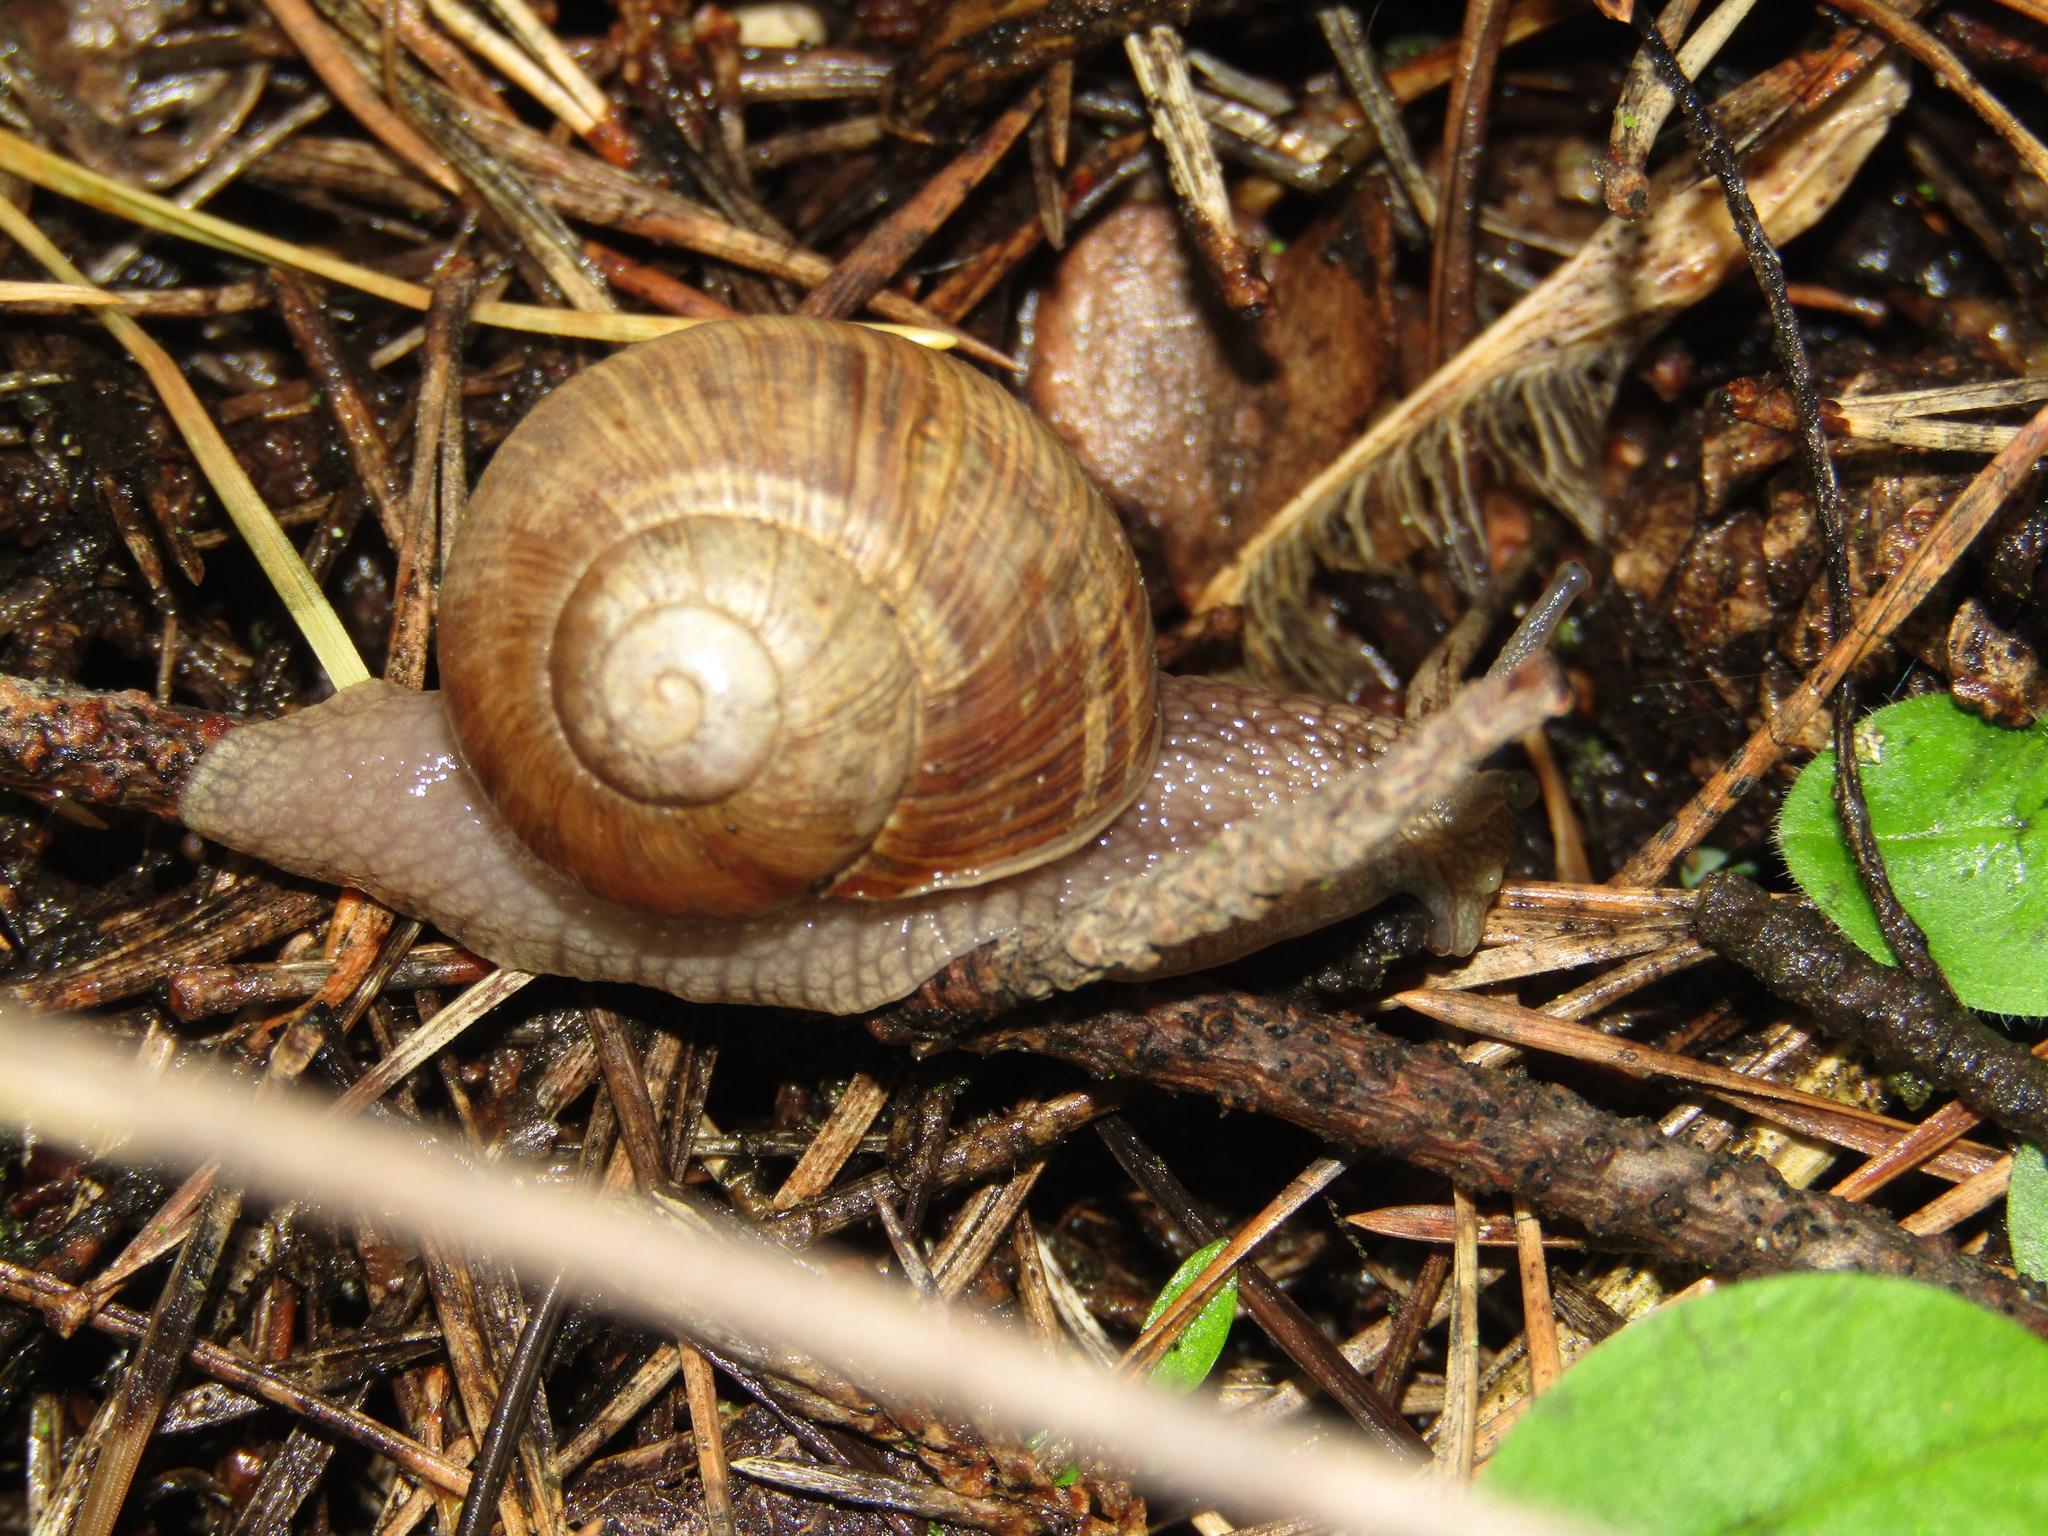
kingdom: Animalia
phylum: Mollusca
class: Gastropoda
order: Stylommatophora
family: Helicidae
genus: Helix
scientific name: Helix pomatia
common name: Roman snail
